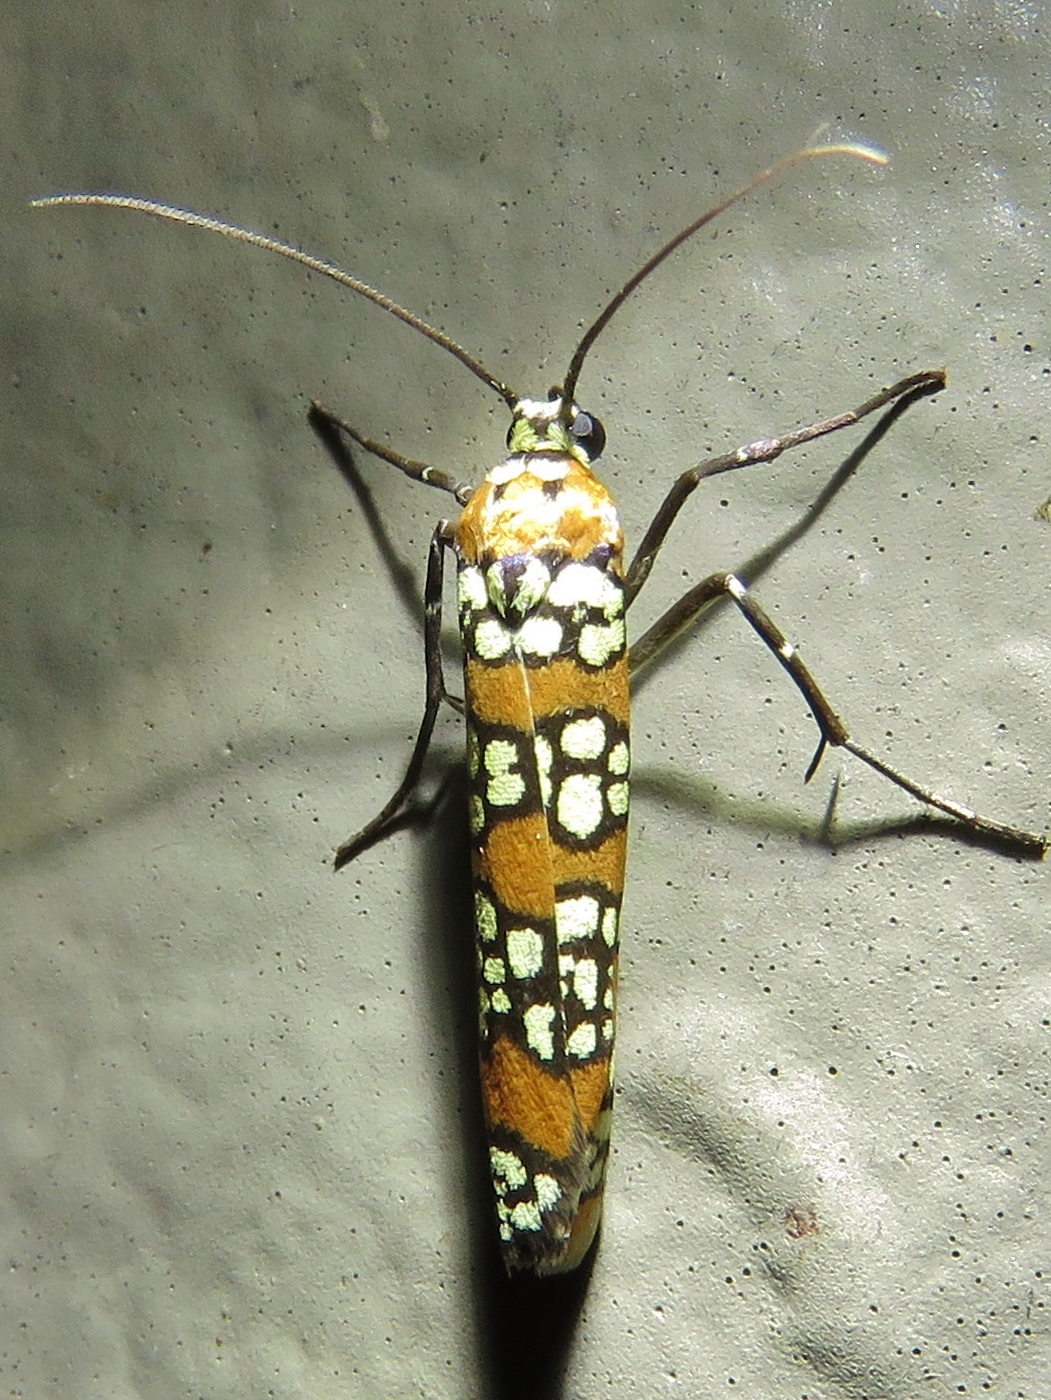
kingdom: Animalia
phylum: Arthropoda
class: Insecta
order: Lepidoptera
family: Attevidae
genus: Atteva
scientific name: Atteva punctella
